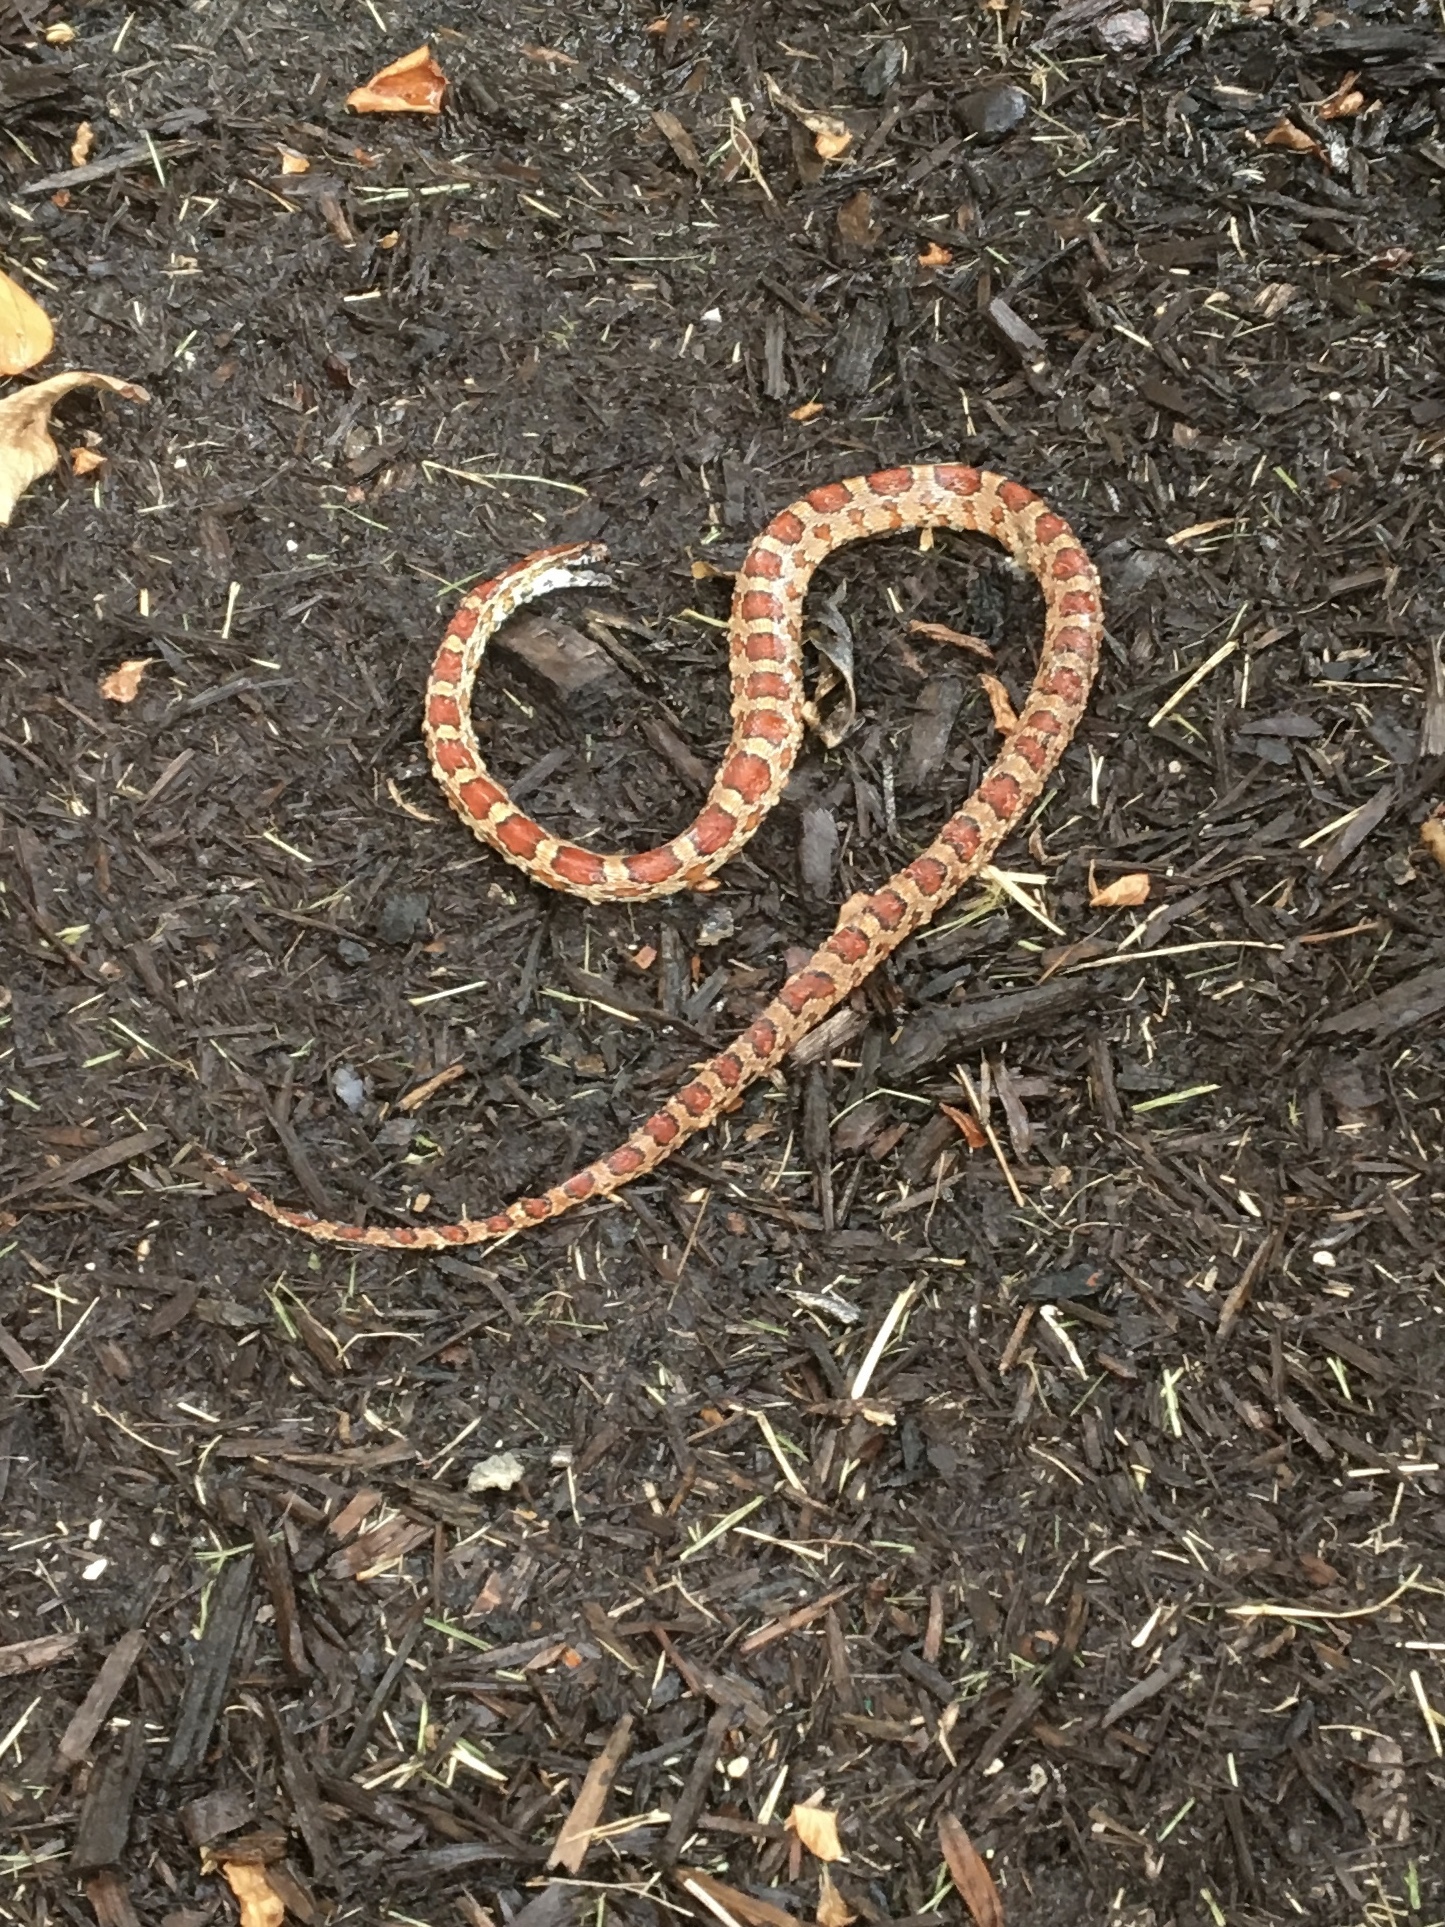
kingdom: Animalia
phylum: Chordata
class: Squamata
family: Colubridae
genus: Pantherophis
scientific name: Pantherophis guttatus
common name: Red cornsnake
